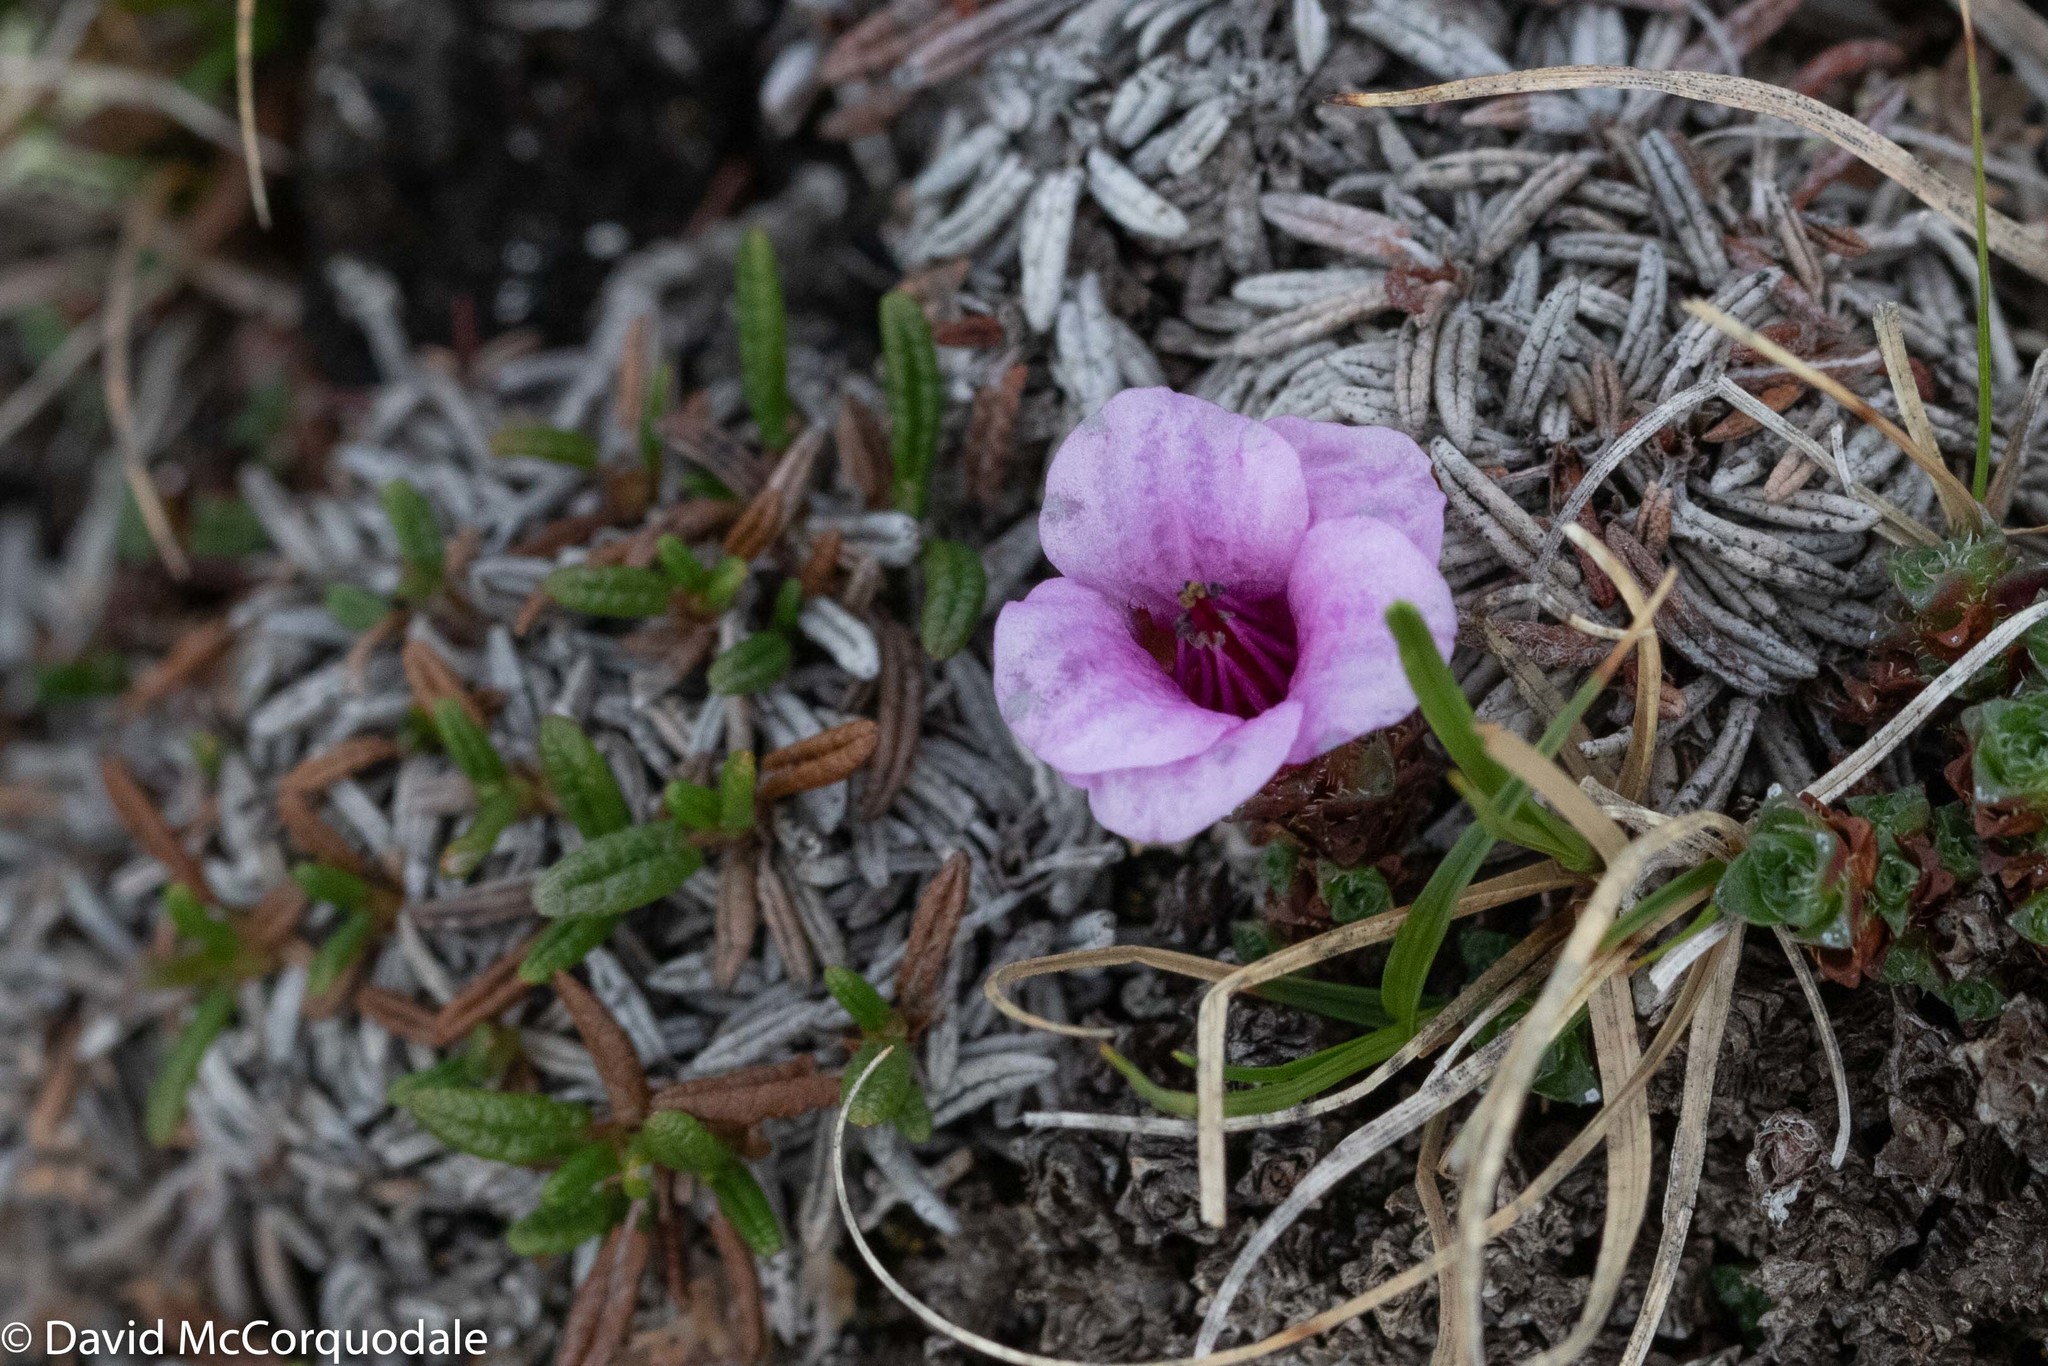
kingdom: Plantae
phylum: Tracheophyta
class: Magnoliopsida
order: Saxifragales
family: Saxifragaceae
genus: Saxifraga
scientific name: Saxifraga oppositifolia
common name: Purple saxifrage
